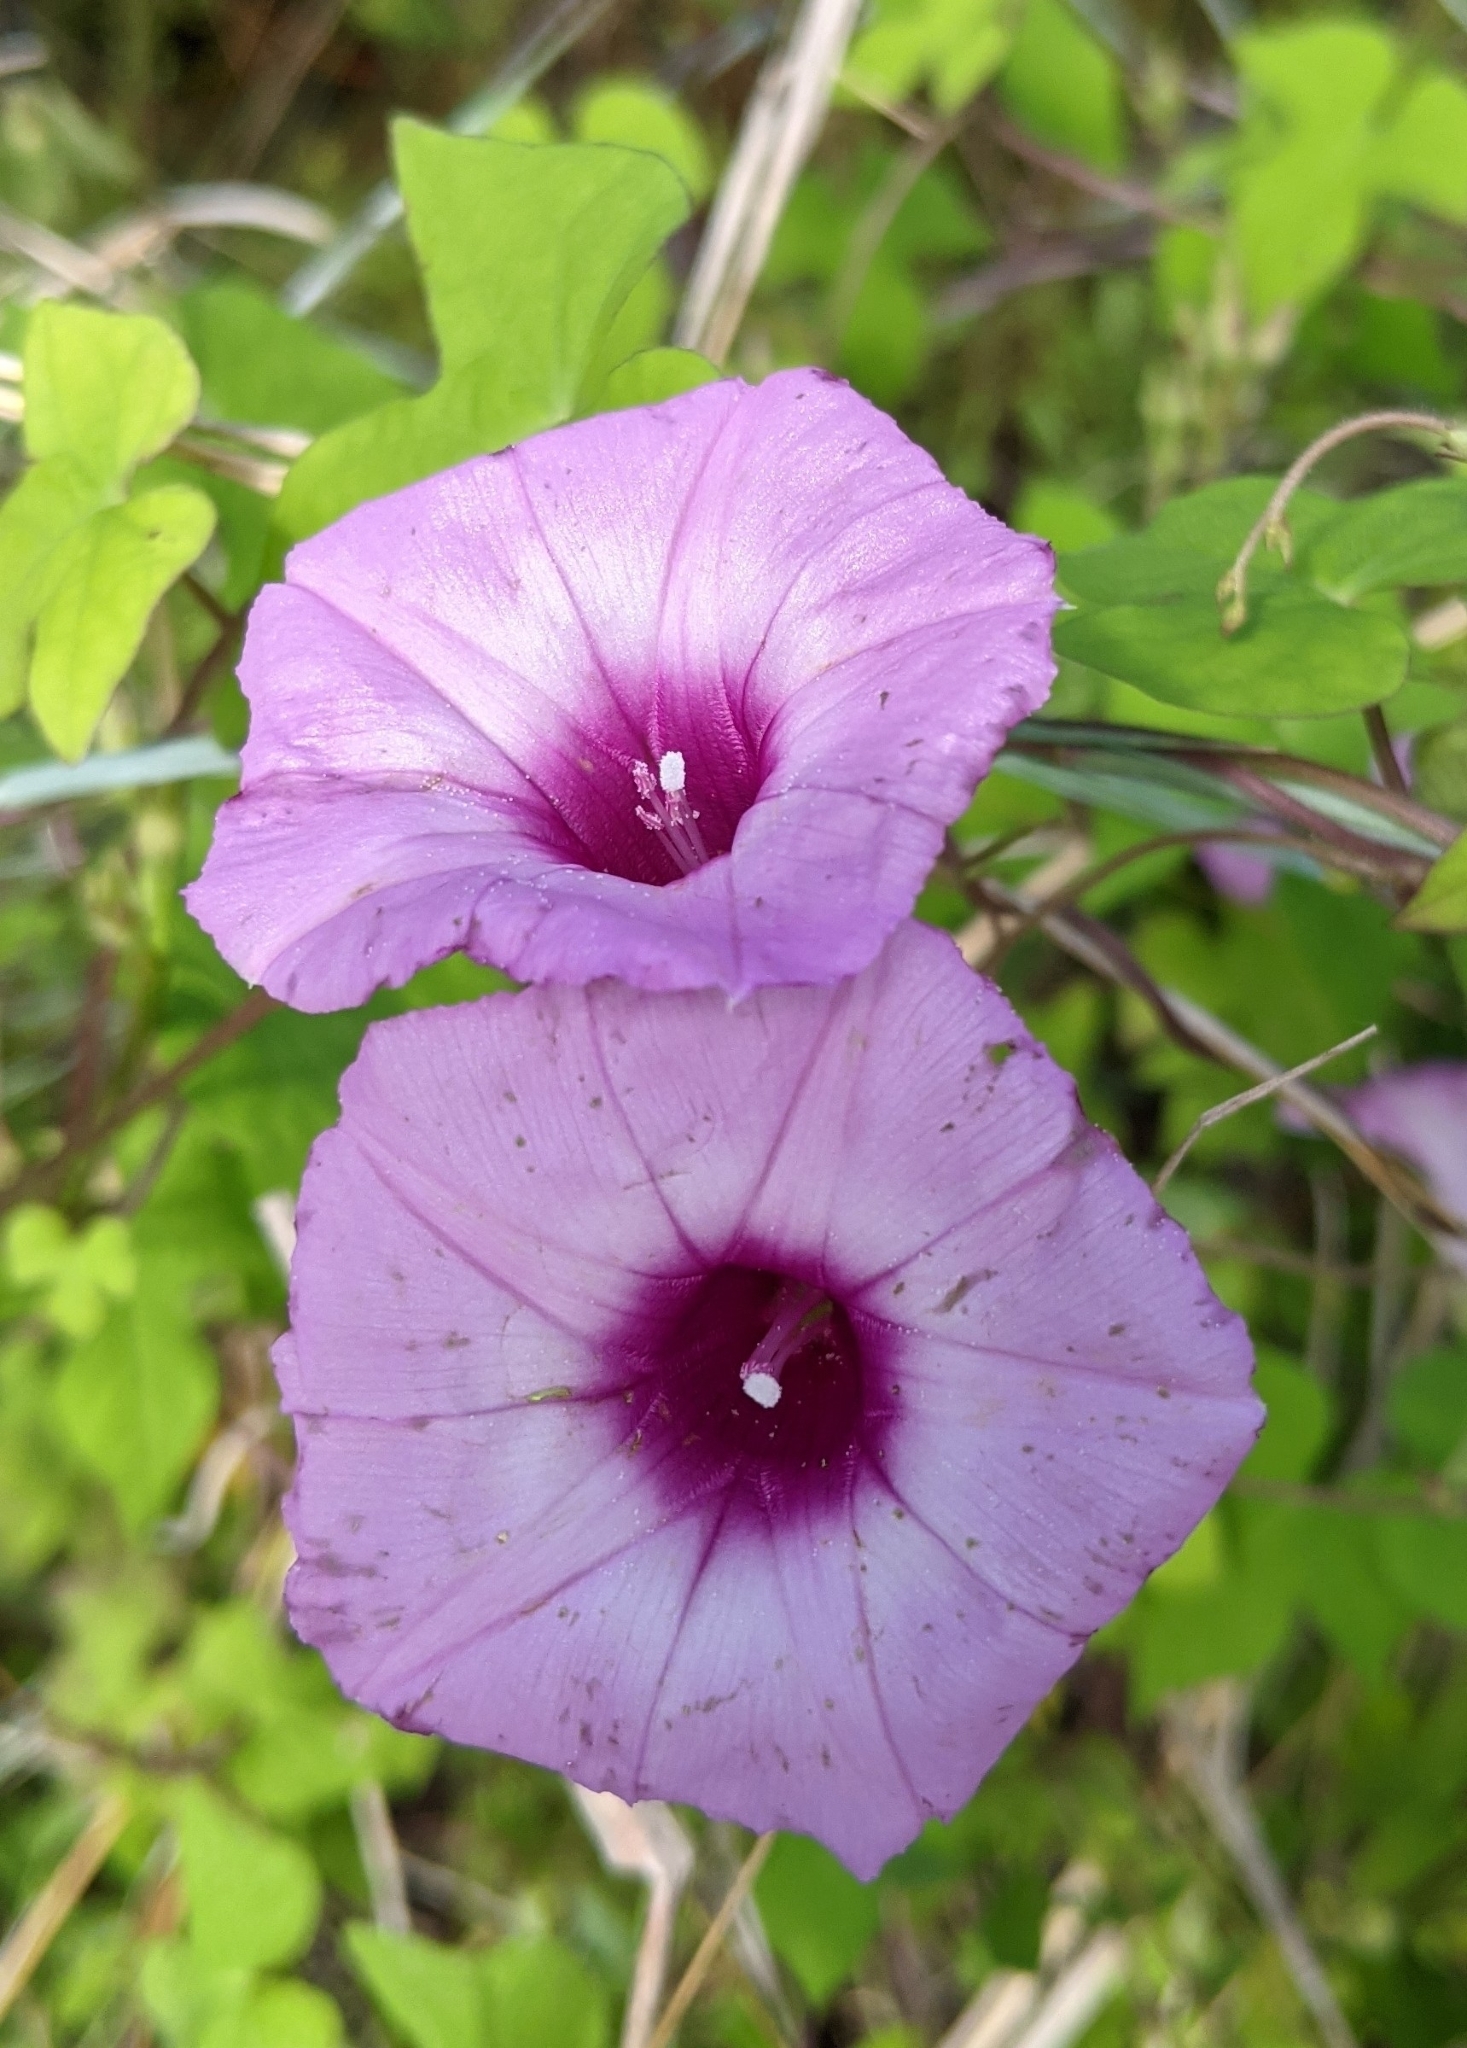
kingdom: Plantae
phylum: Tracheophyta
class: Magnoliopsida
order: Solanales
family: Convolvulaceae
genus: Ipomoea
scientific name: Ipomoea cordatotriloba
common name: Cotton morning glory
